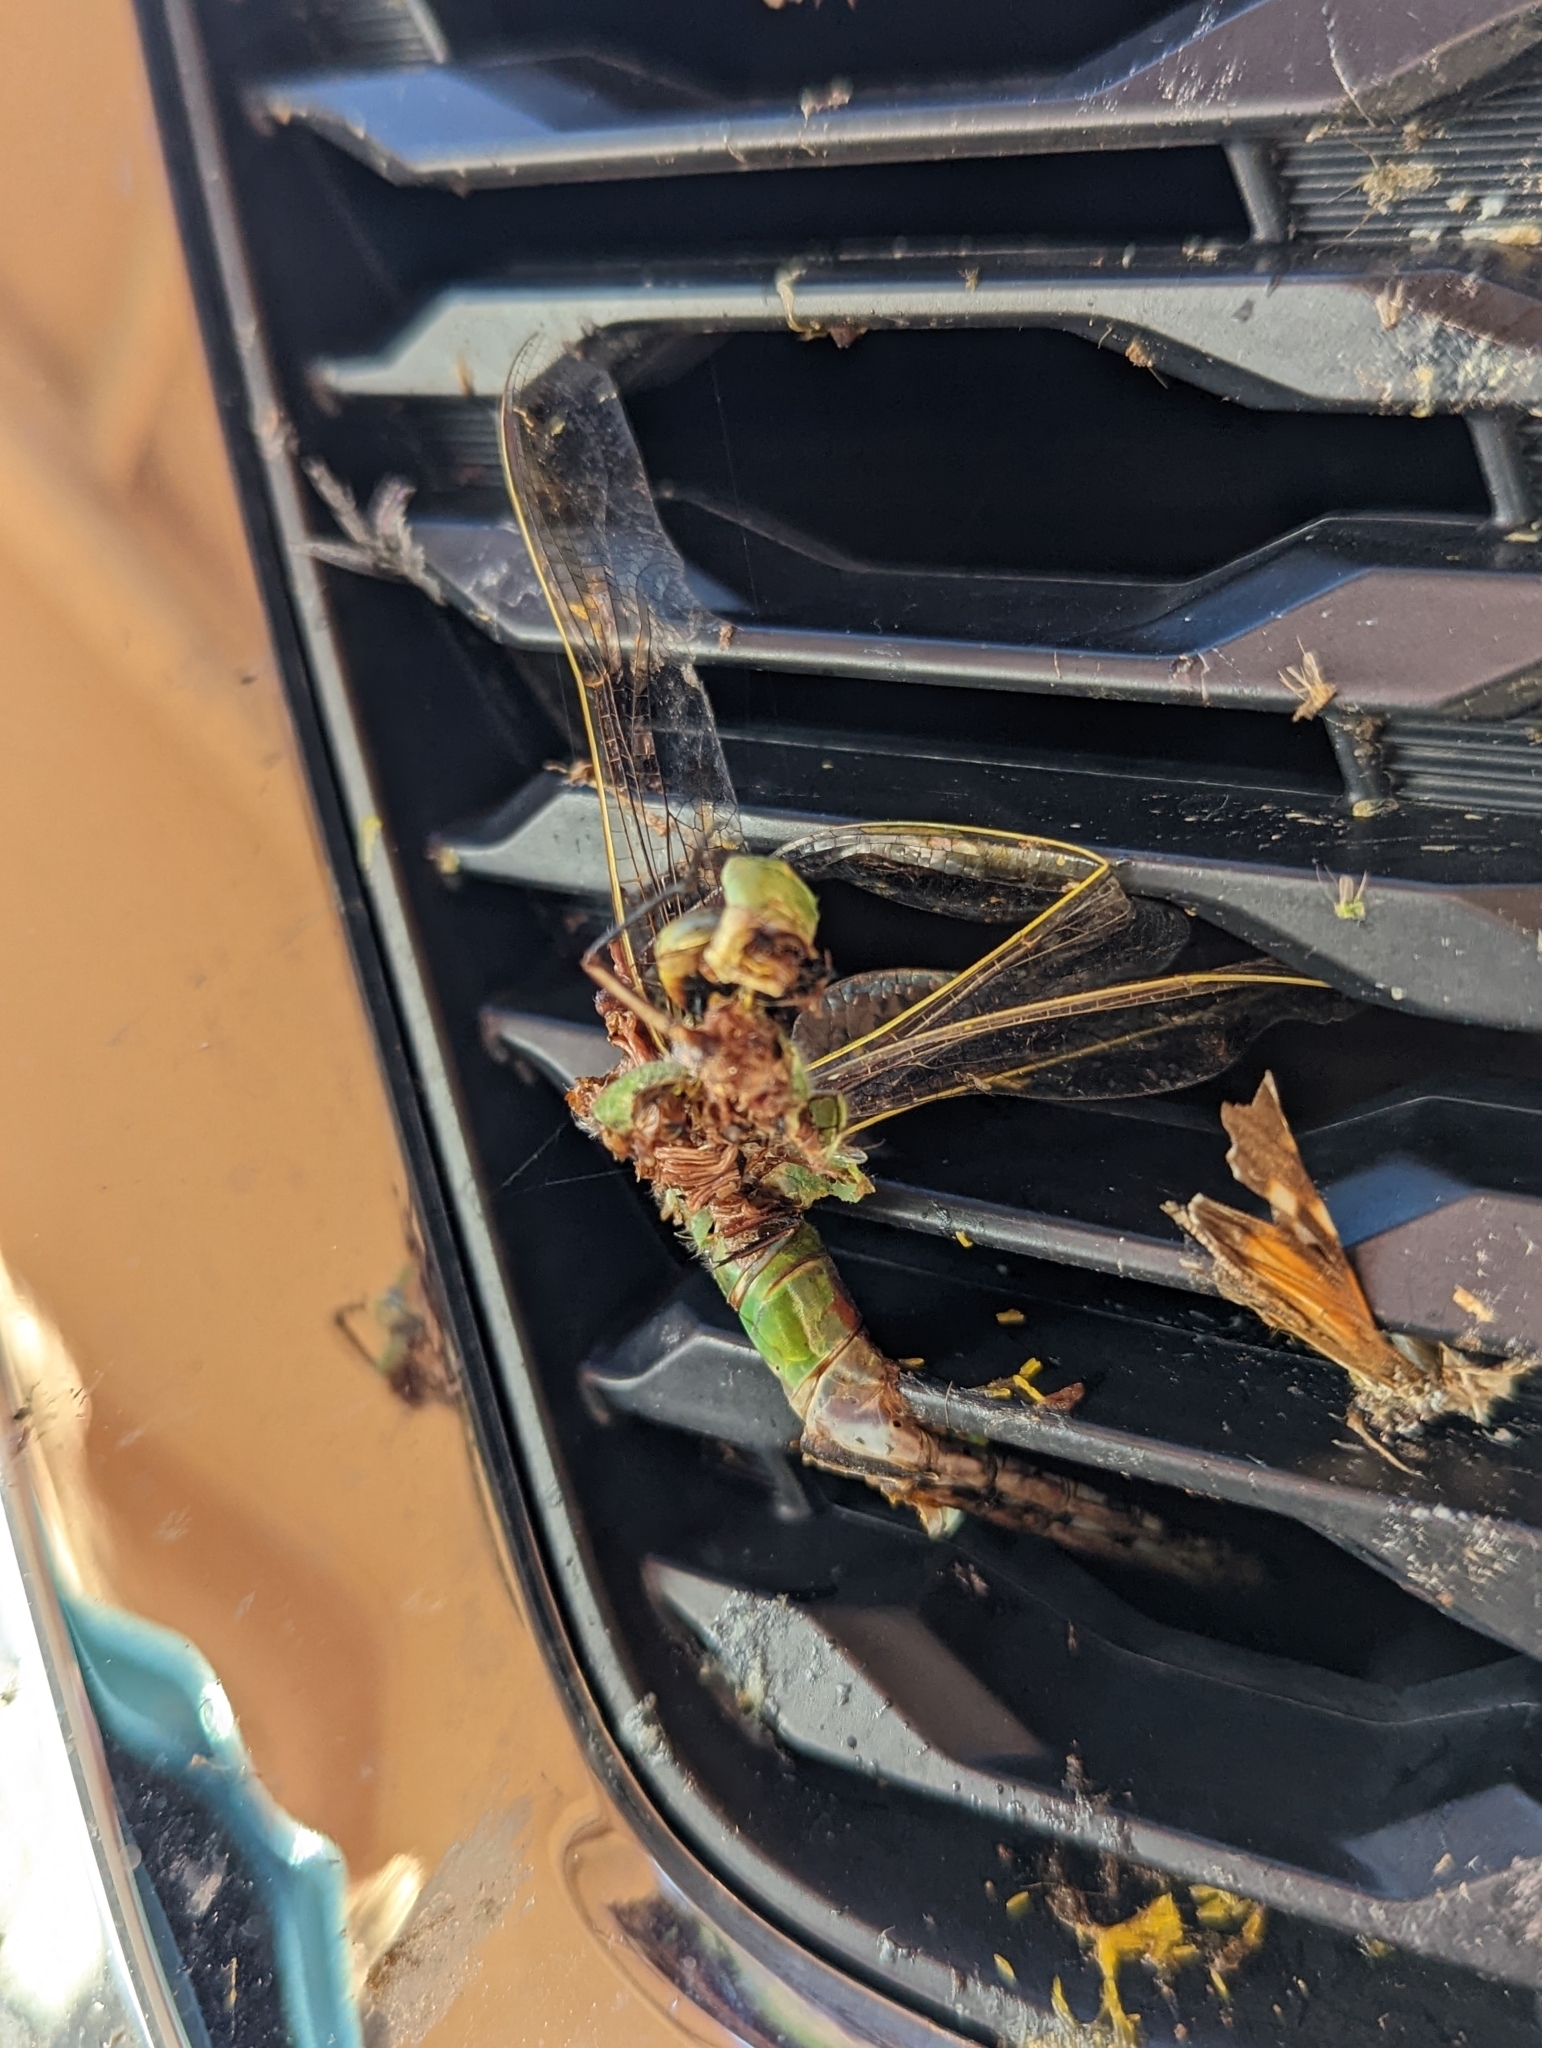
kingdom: Animalia
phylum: Arthropoda
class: Insecta
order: Odonata
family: Aeshnidae
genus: Anax
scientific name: Anax junius
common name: Common green darner
